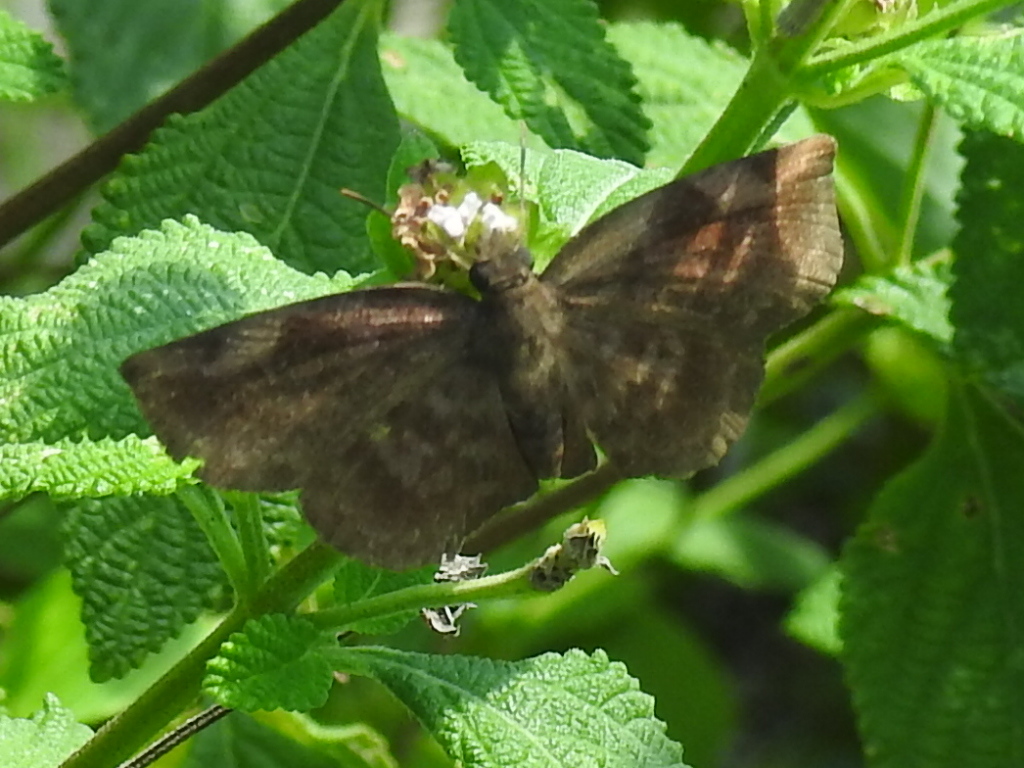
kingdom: Animalia
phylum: Arthropoda
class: Insecta
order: Lepidoptera
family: Hesperiidae
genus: Achlyodes
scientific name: Achlyodes thraso
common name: Sickle-winged skipper
